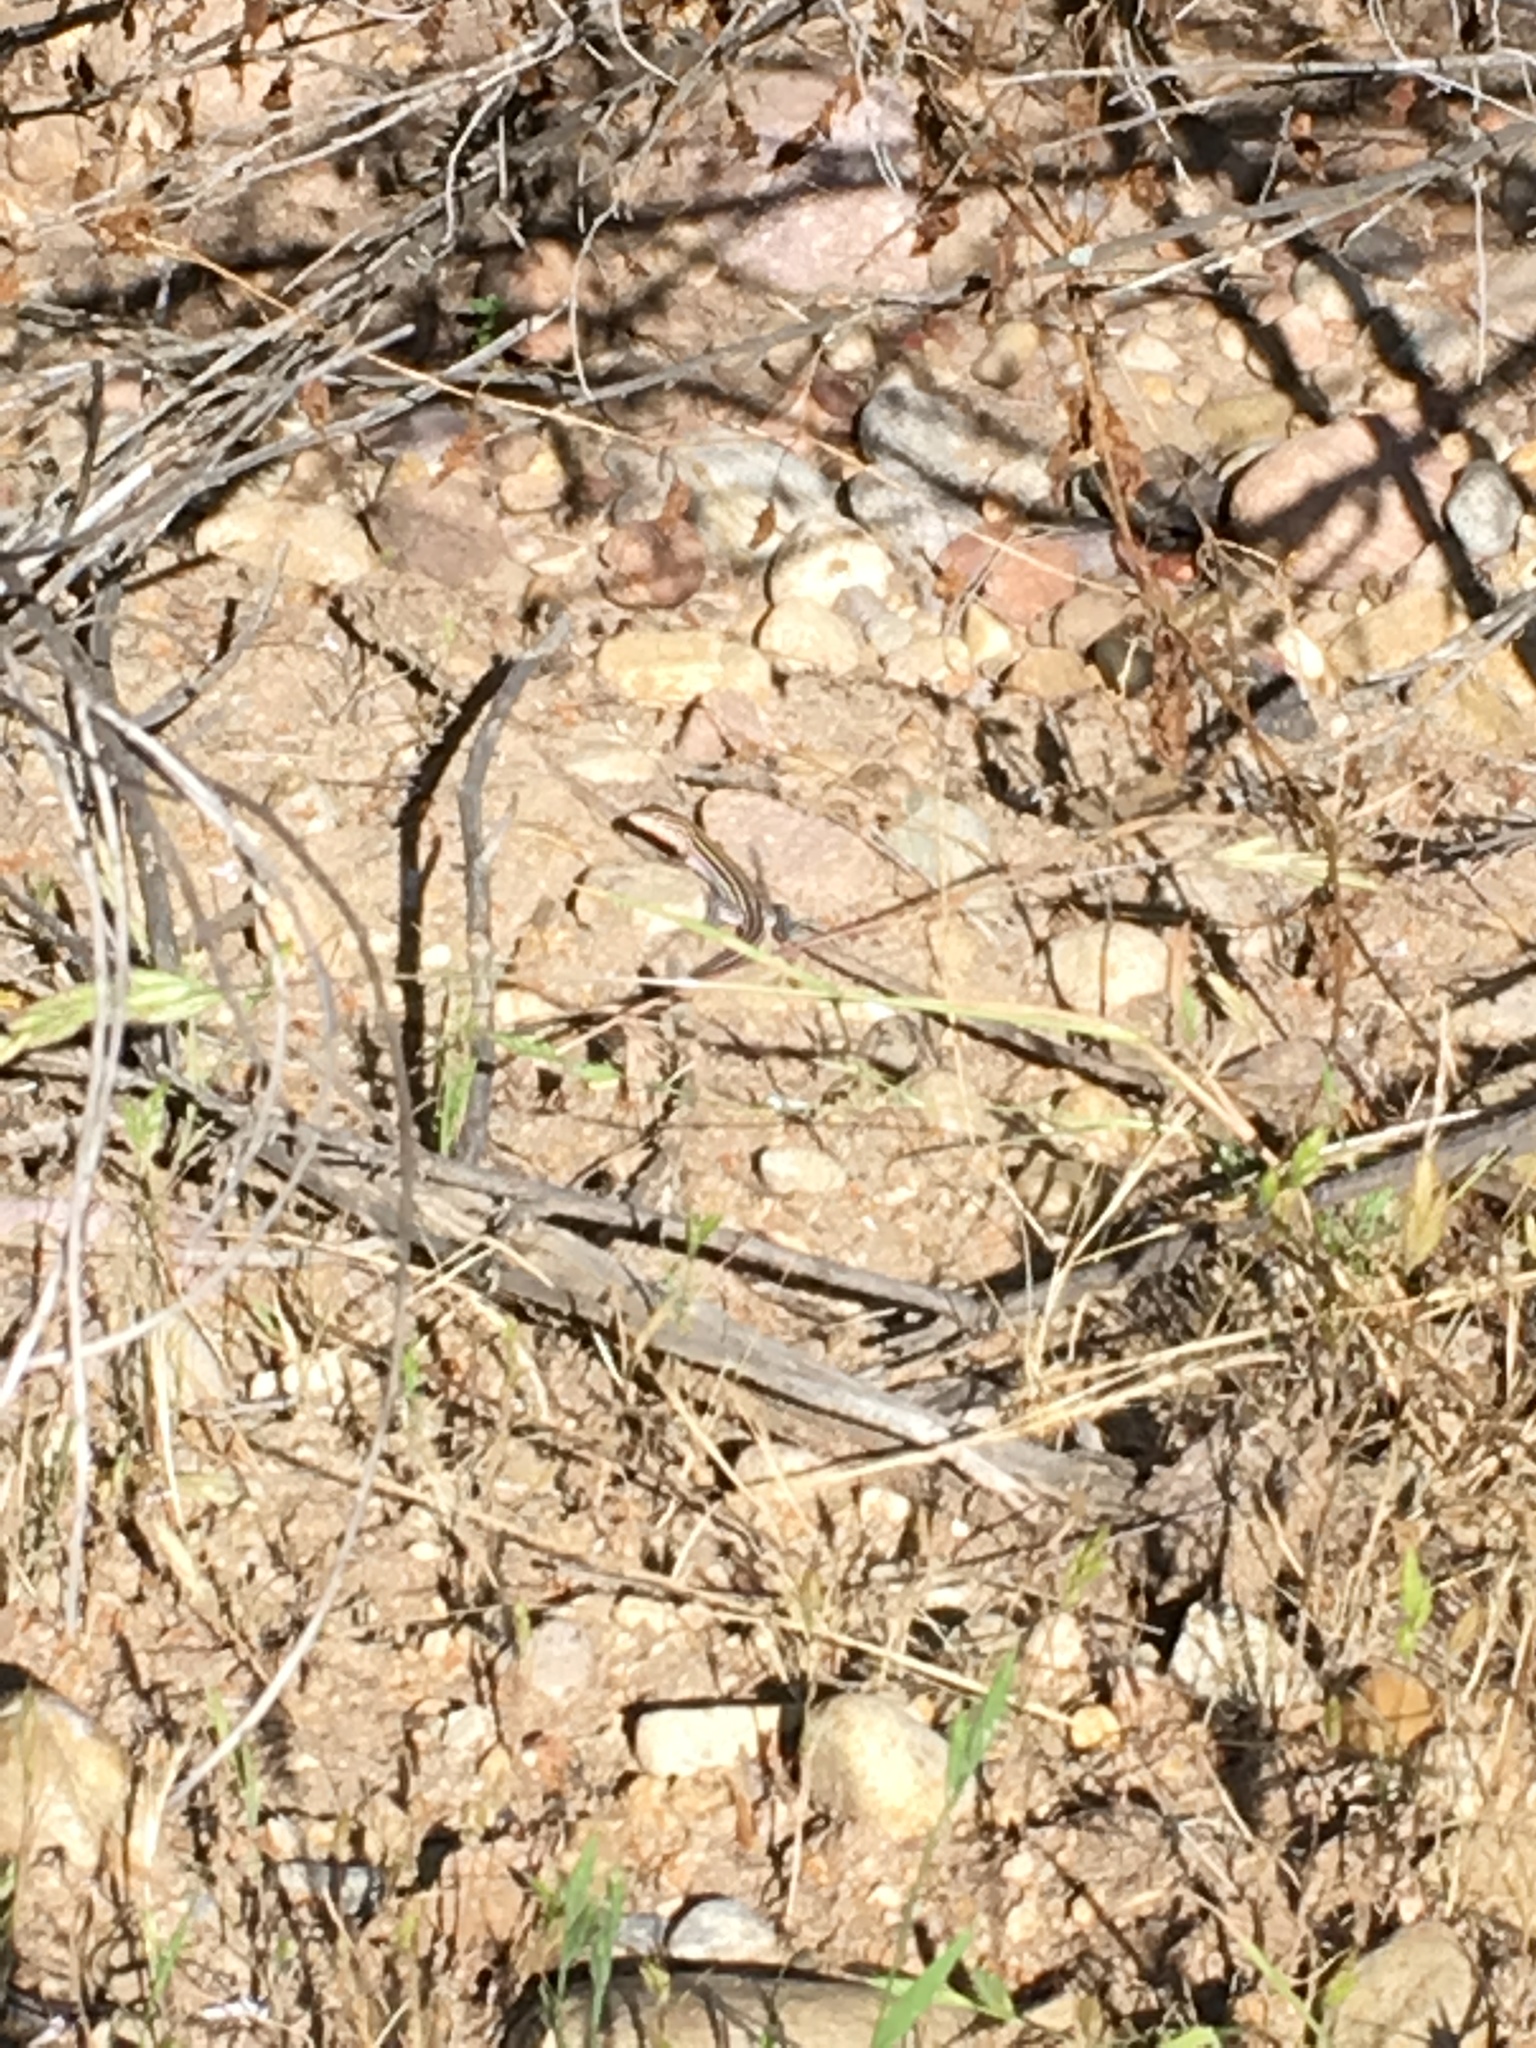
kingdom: Animalia
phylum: Chordata
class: Squamata
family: Teiidae
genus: Aspidoscelis
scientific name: Aspidoscelis hyperythrus
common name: Orange-throated race-runner
